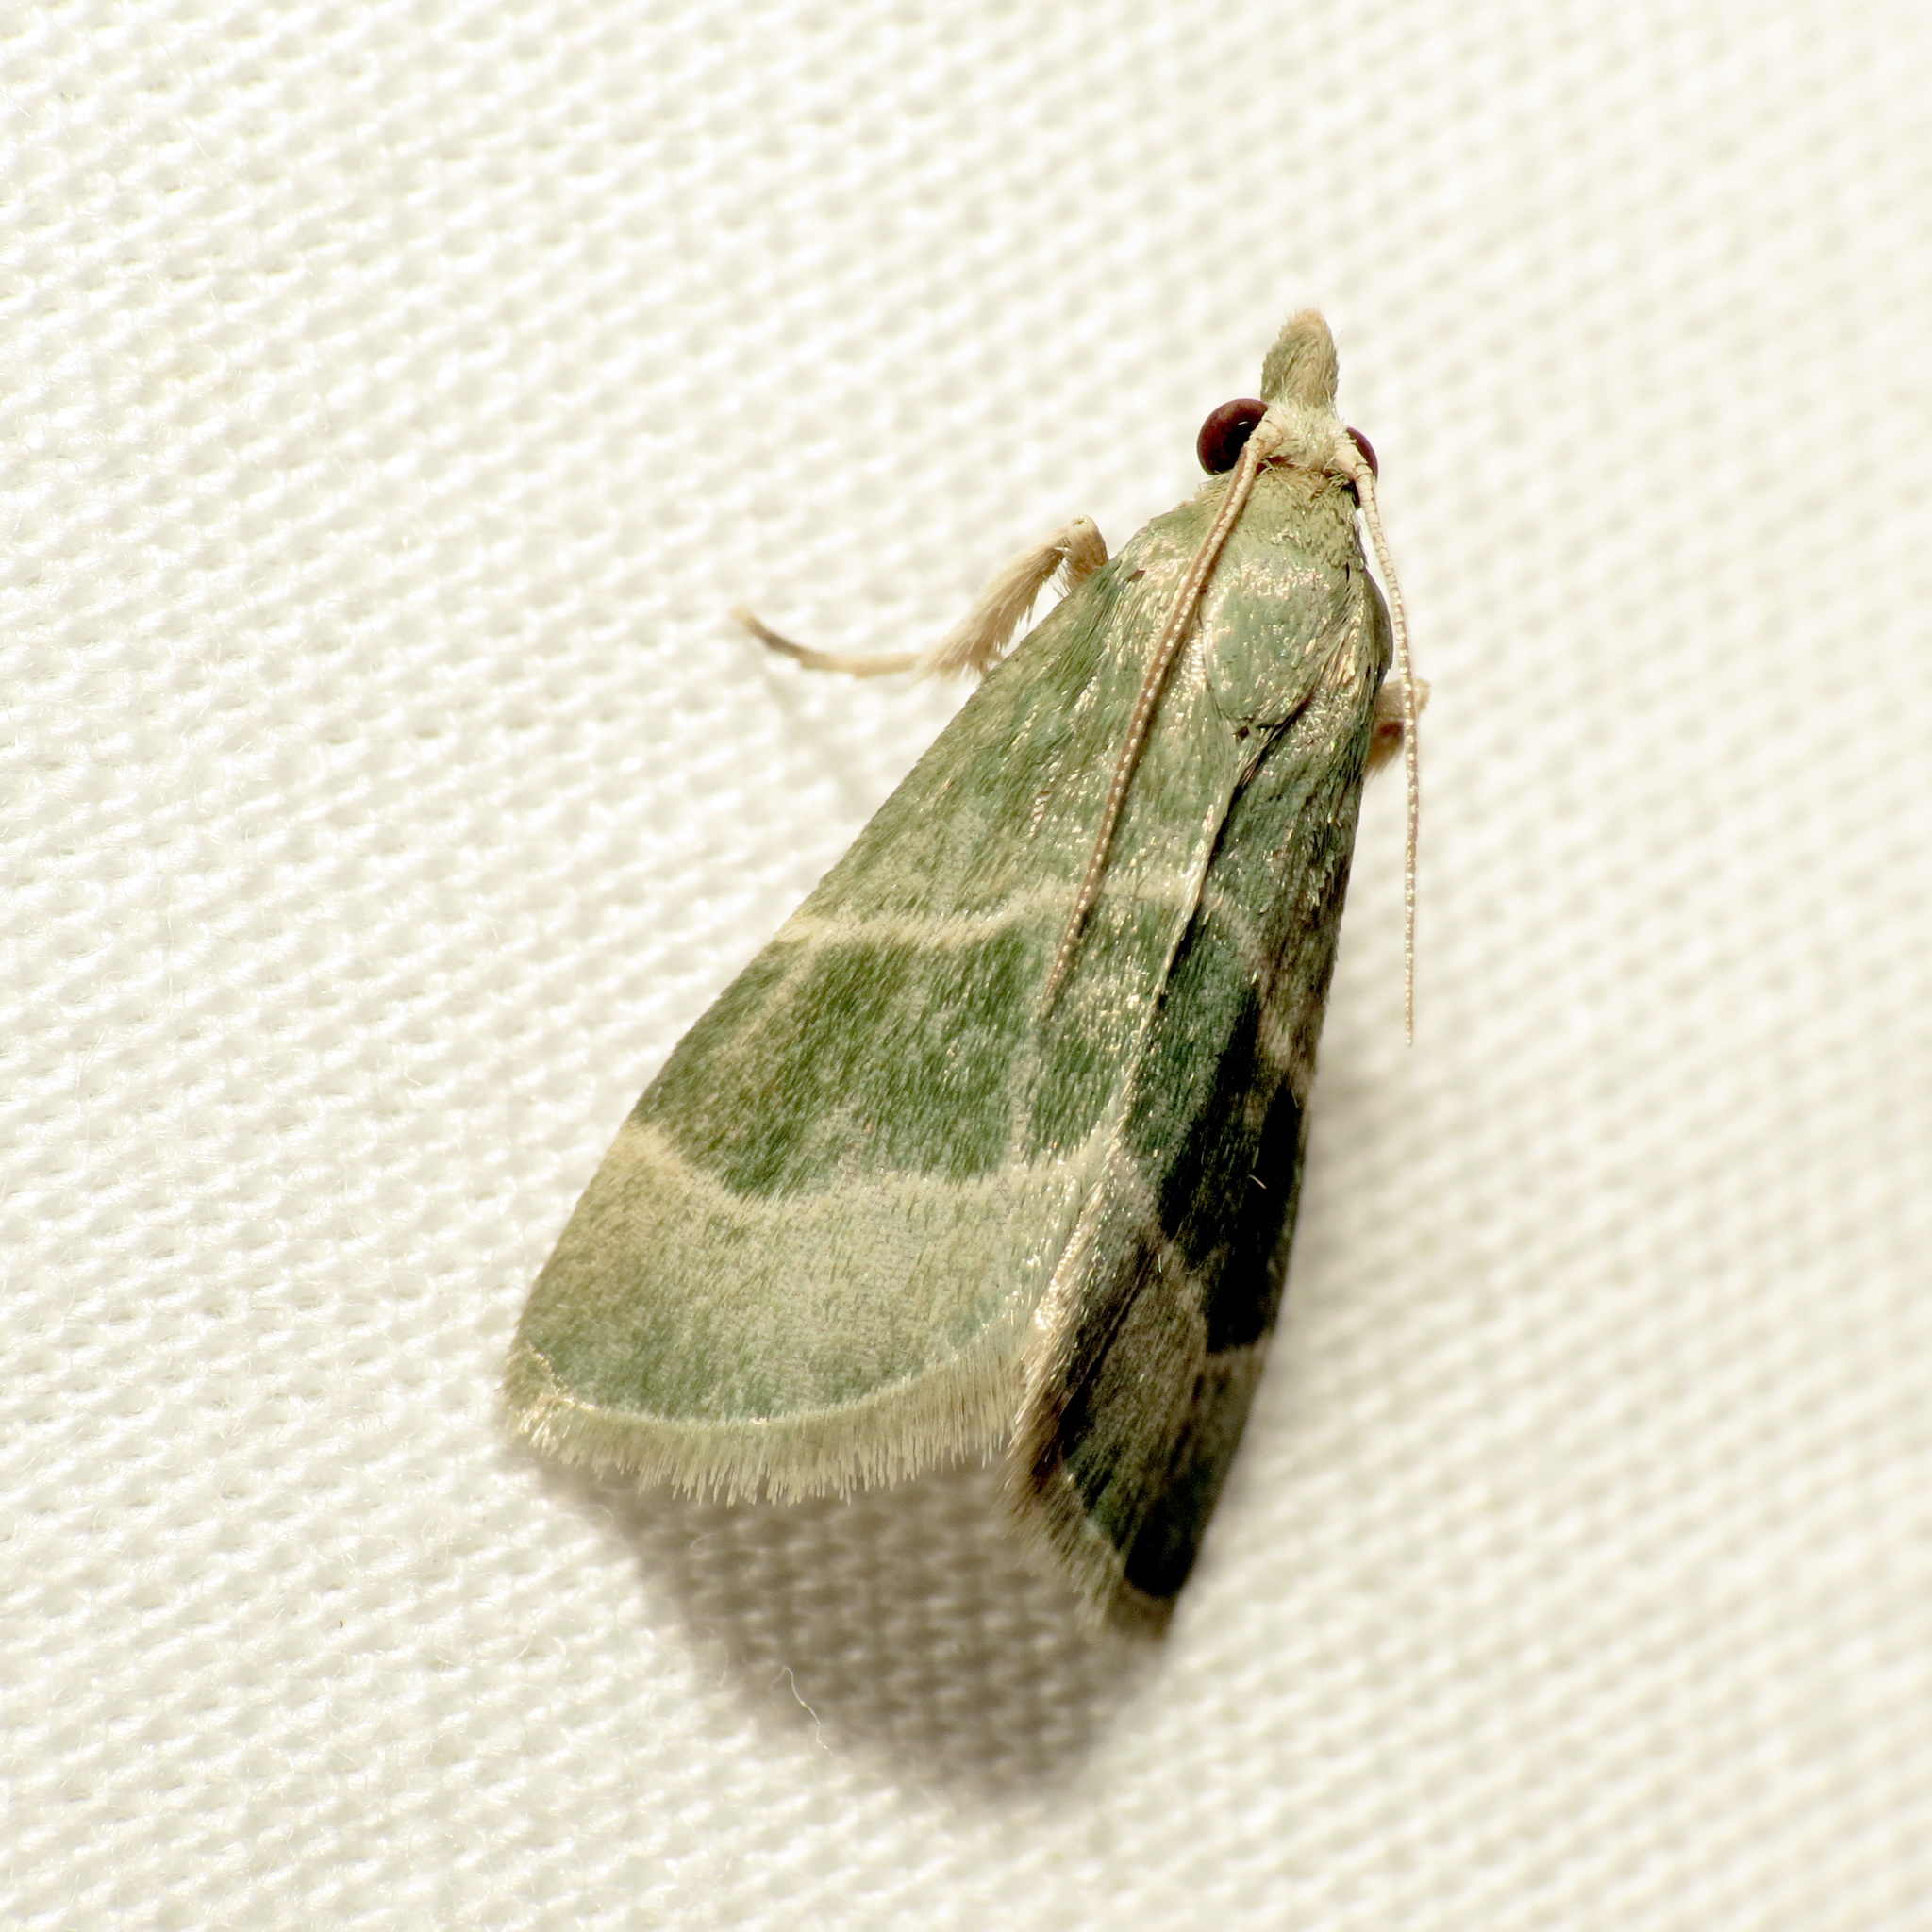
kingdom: Animalia
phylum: Arthropoda
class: Insecta
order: Lepidoptera
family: Pyralidae
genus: Anemosella
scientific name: Anemosella viridalis
